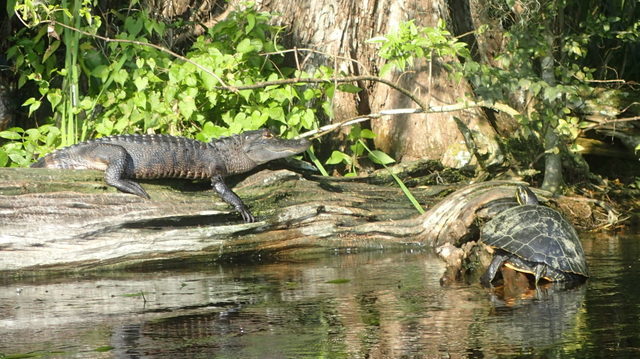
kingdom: Animalia
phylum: Chordata
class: Crocodylia
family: Alligatoridae
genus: Alligator
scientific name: Alligator mississippiensis
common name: American alligator
